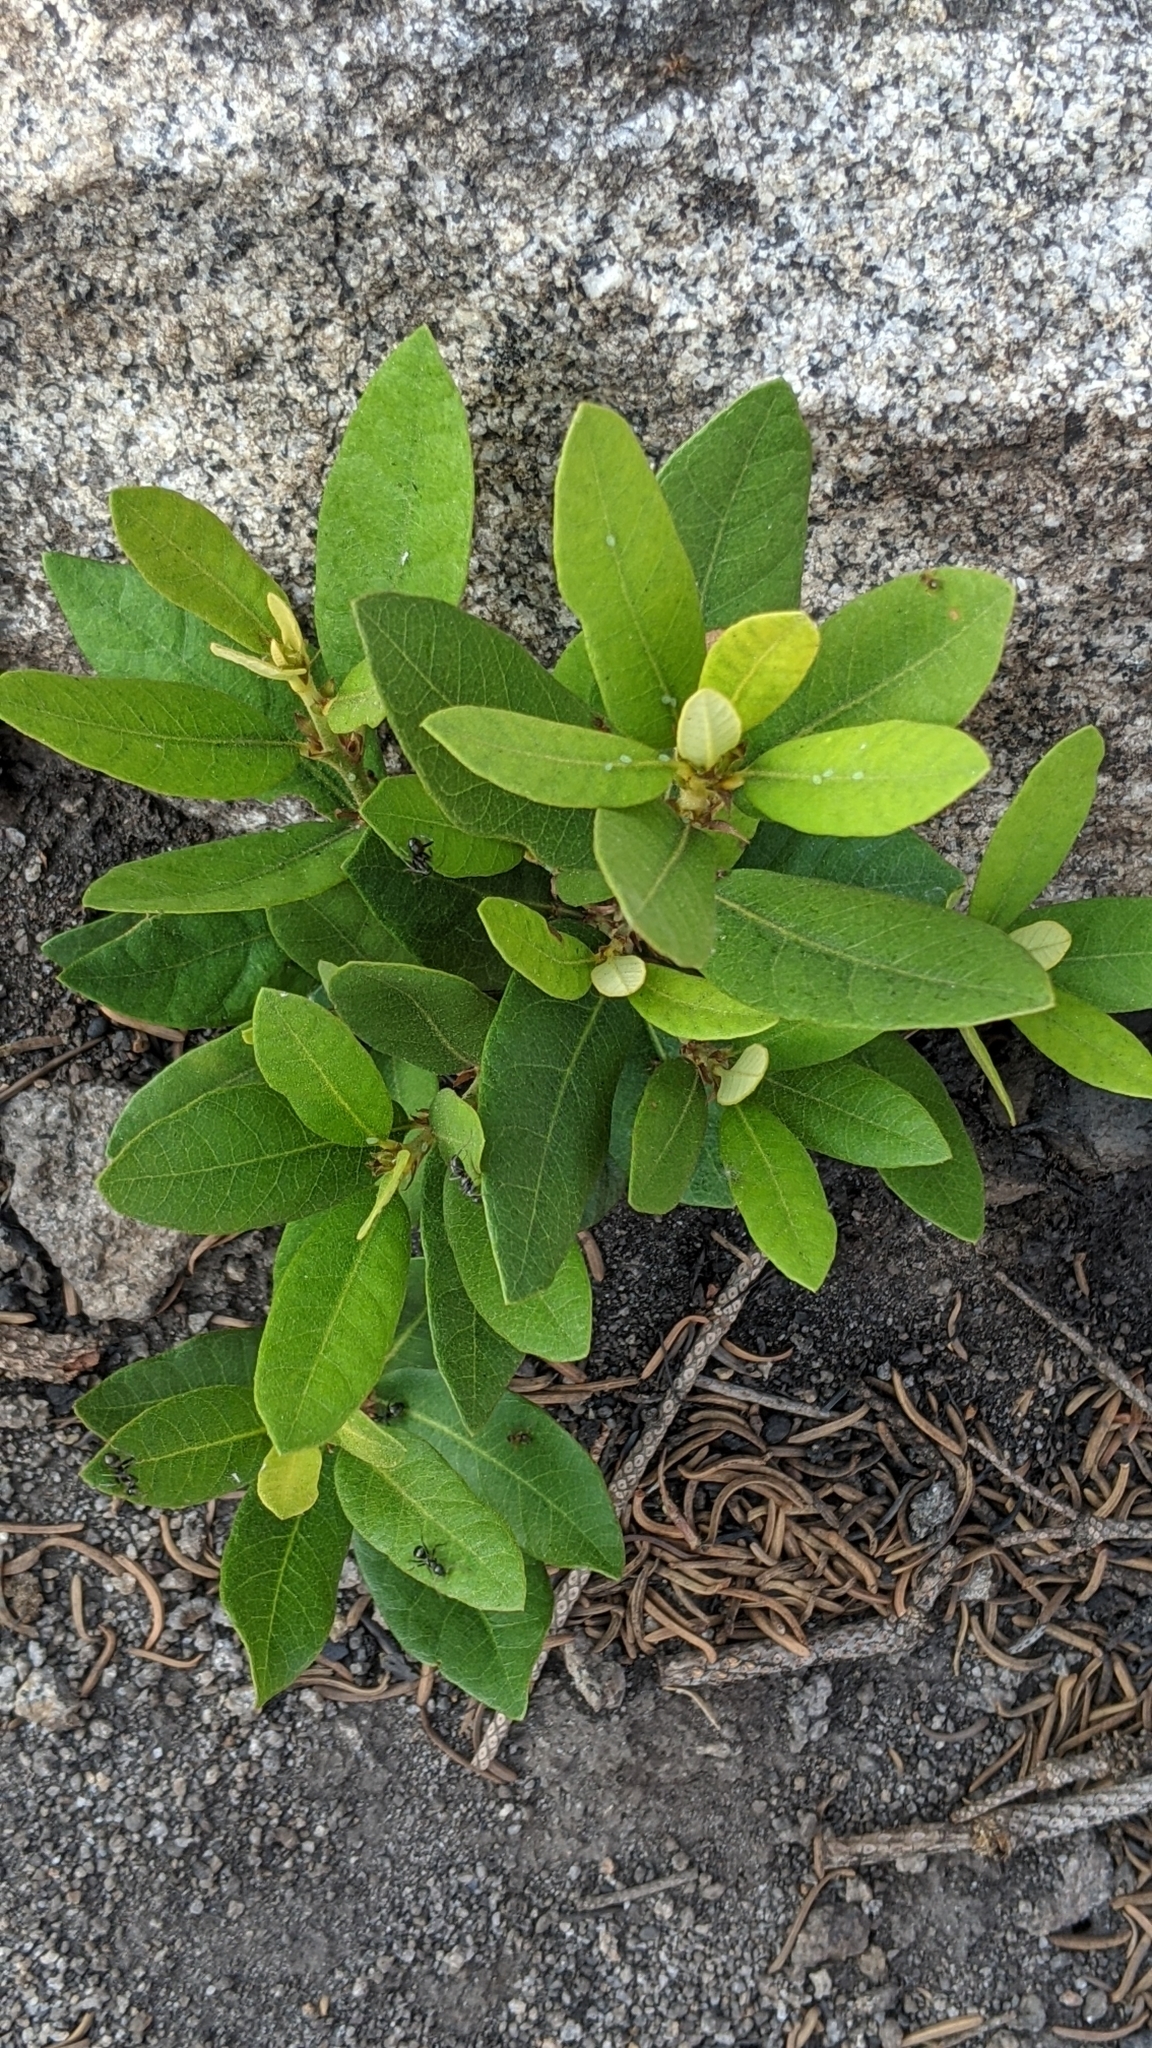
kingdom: Plantae
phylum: Tracheophyta
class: Magnoliopsida
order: Fagales
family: Fagaceae
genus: Chrysolepis
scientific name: Chrysolepis sempervirens
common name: Bush chinquapin
